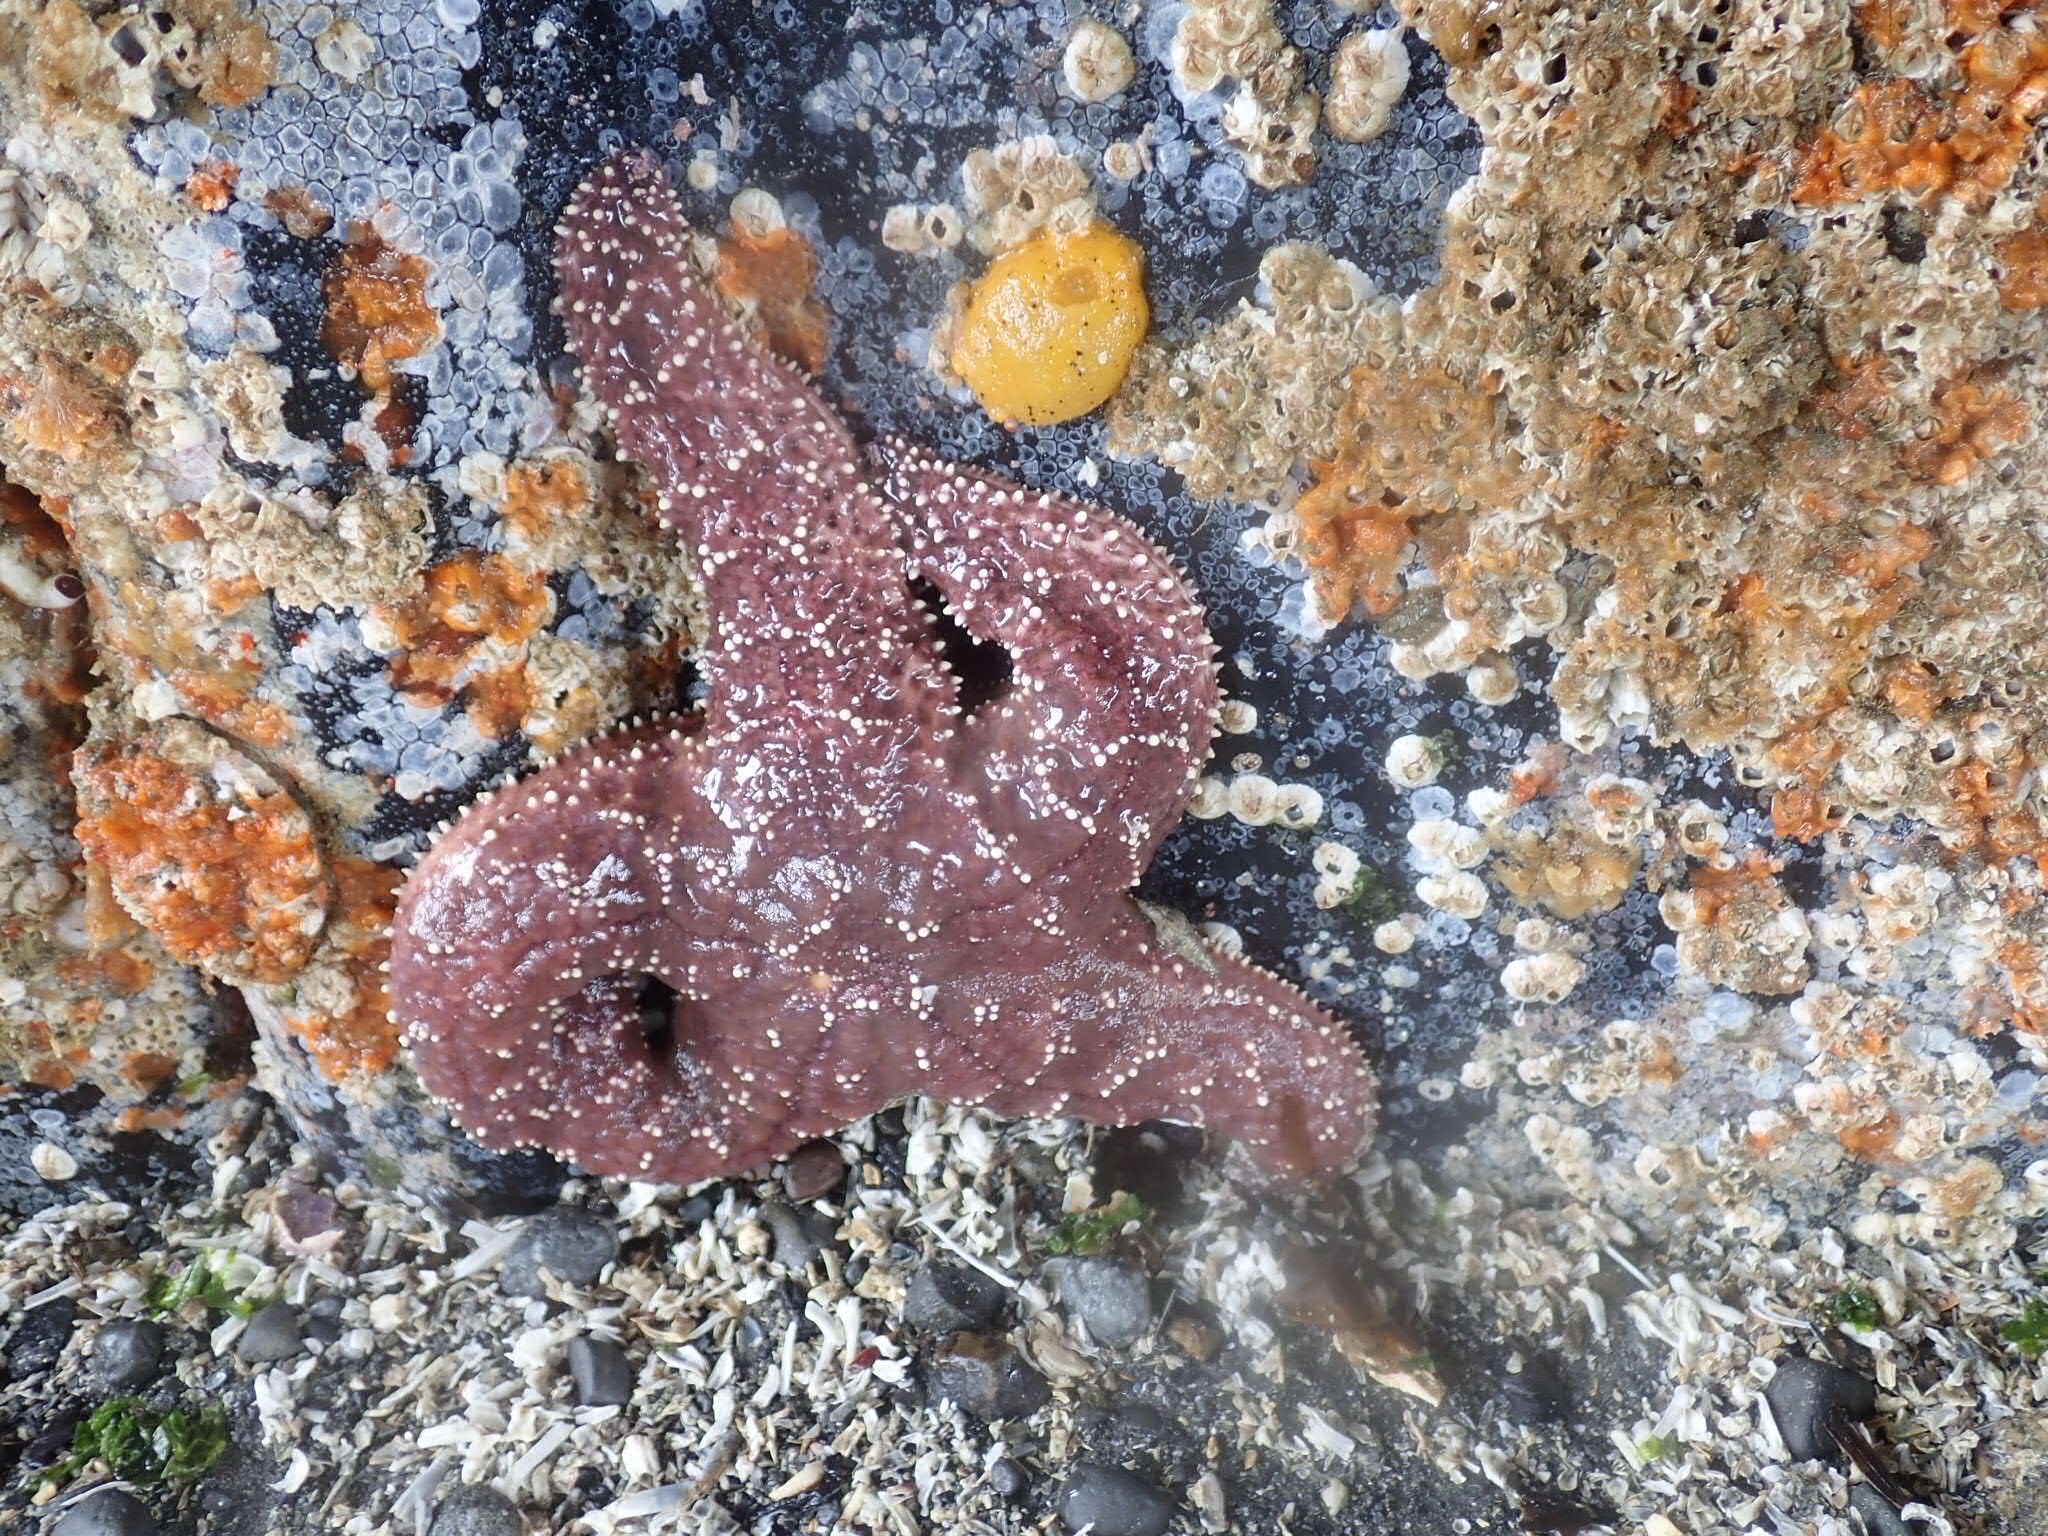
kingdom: Animalia
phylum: Echinodermata
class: Asteroidea
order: Forcipulatida
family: Asteriidae
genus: Pisaster
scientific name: Pisaster ochraceus
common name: Ochre stars
